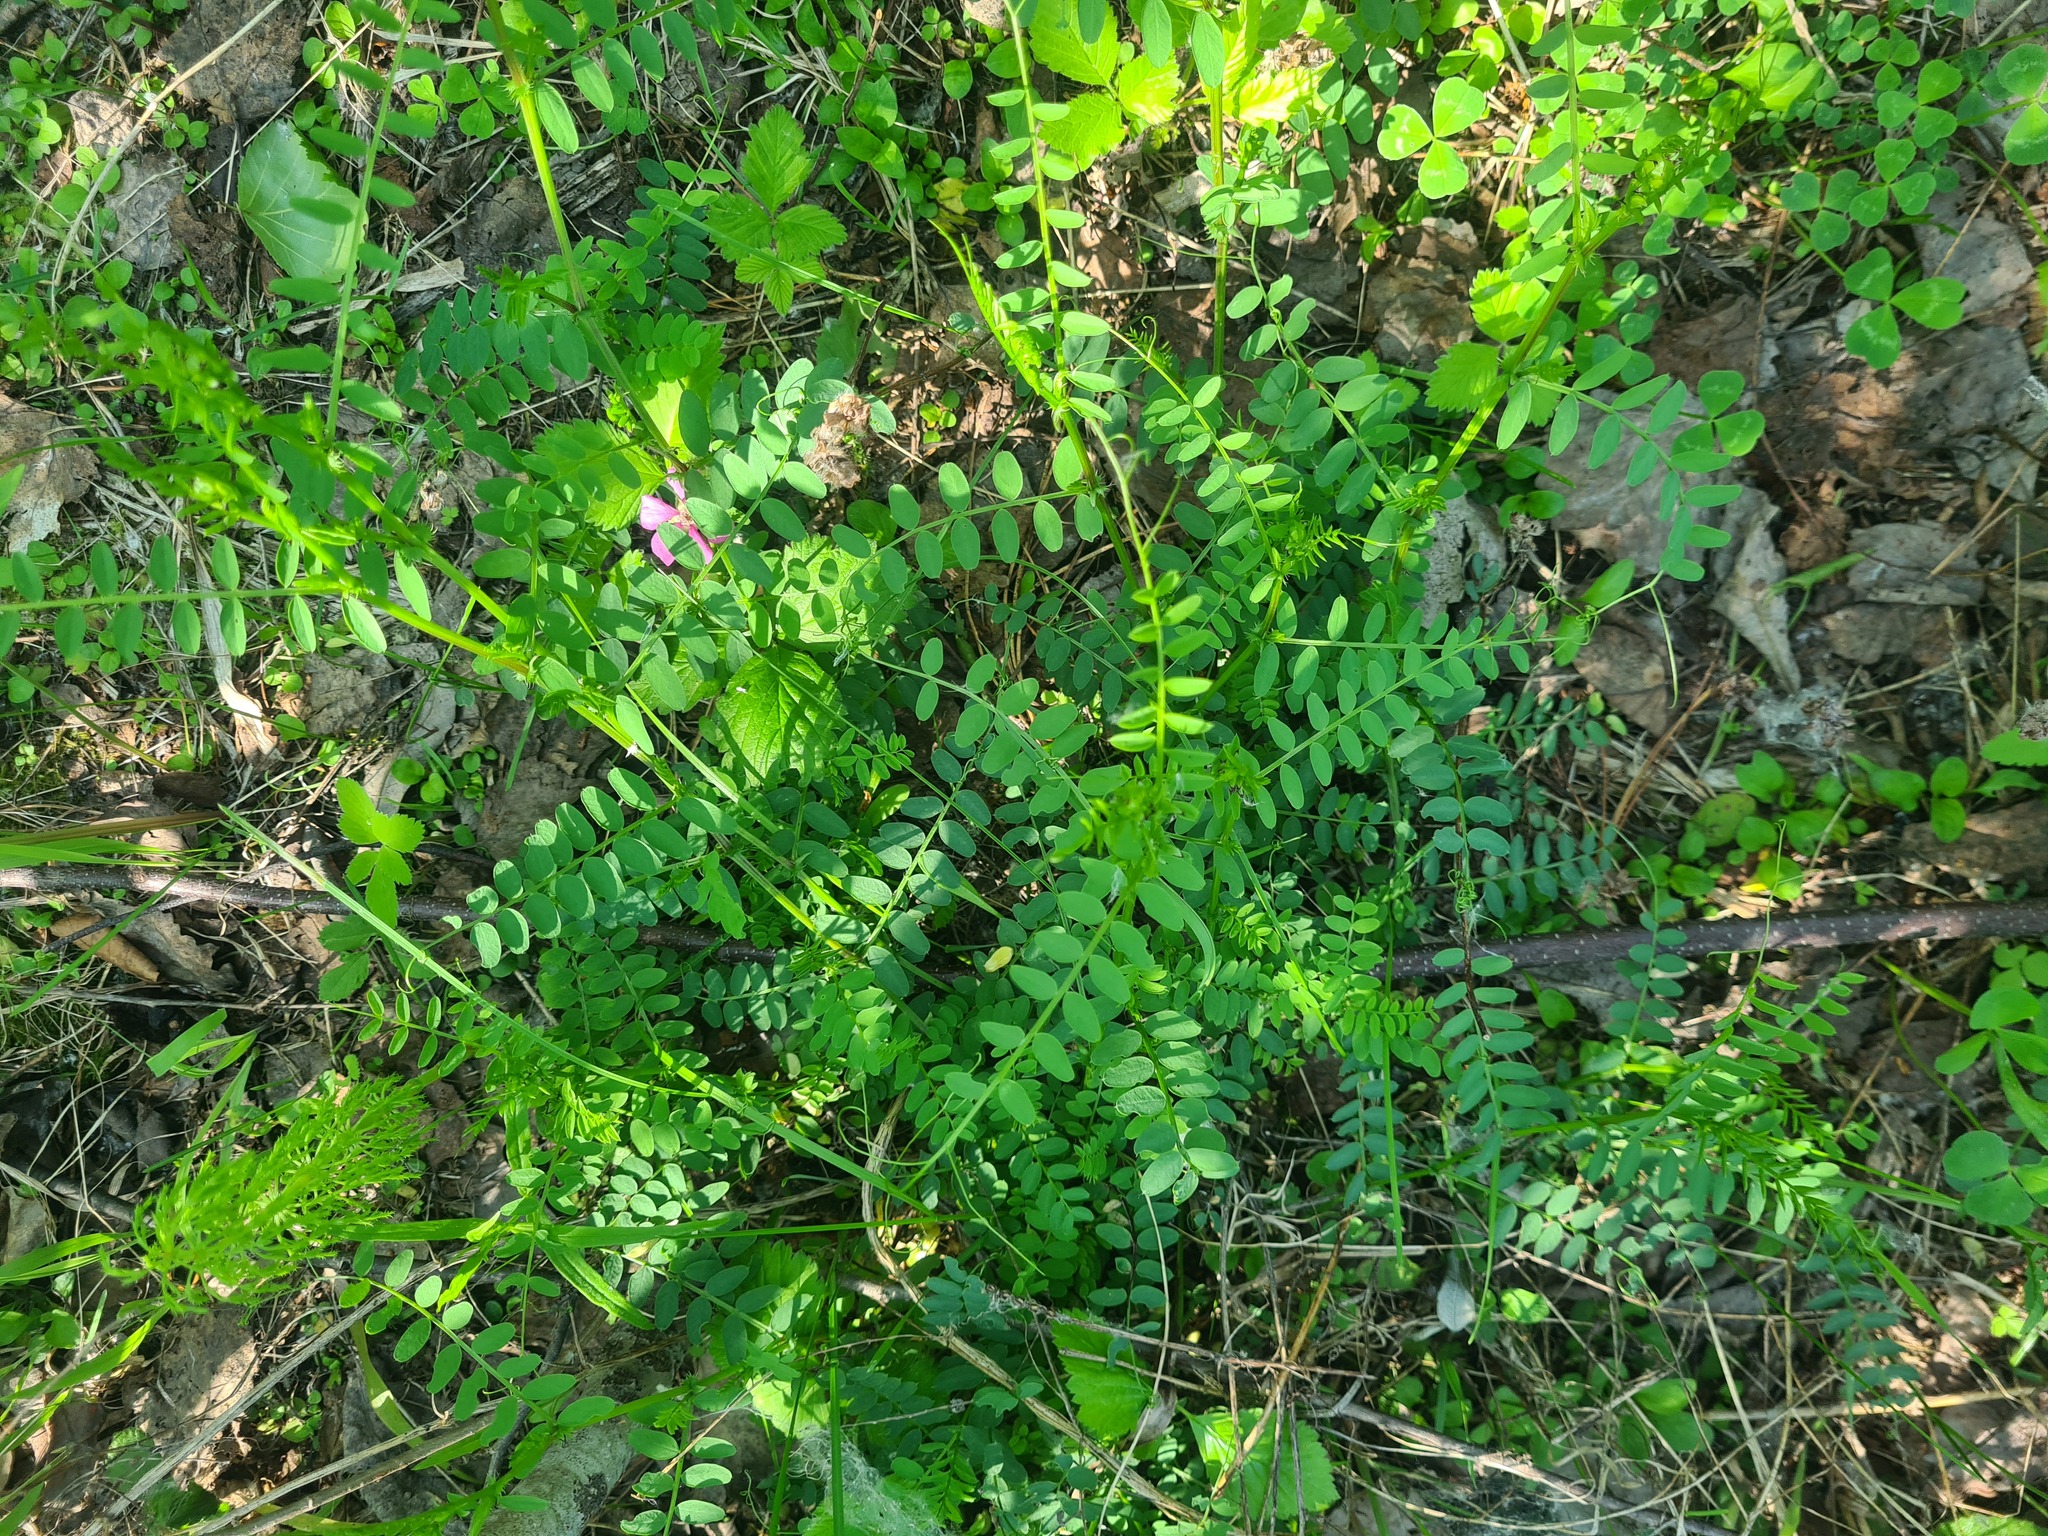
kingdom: Plantae
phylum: Tracheophyta
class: Magnoliopsida
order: Fabales
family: Fabaceae
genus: Vicia
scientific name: Vicia sylvatica
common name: Wood vetch
